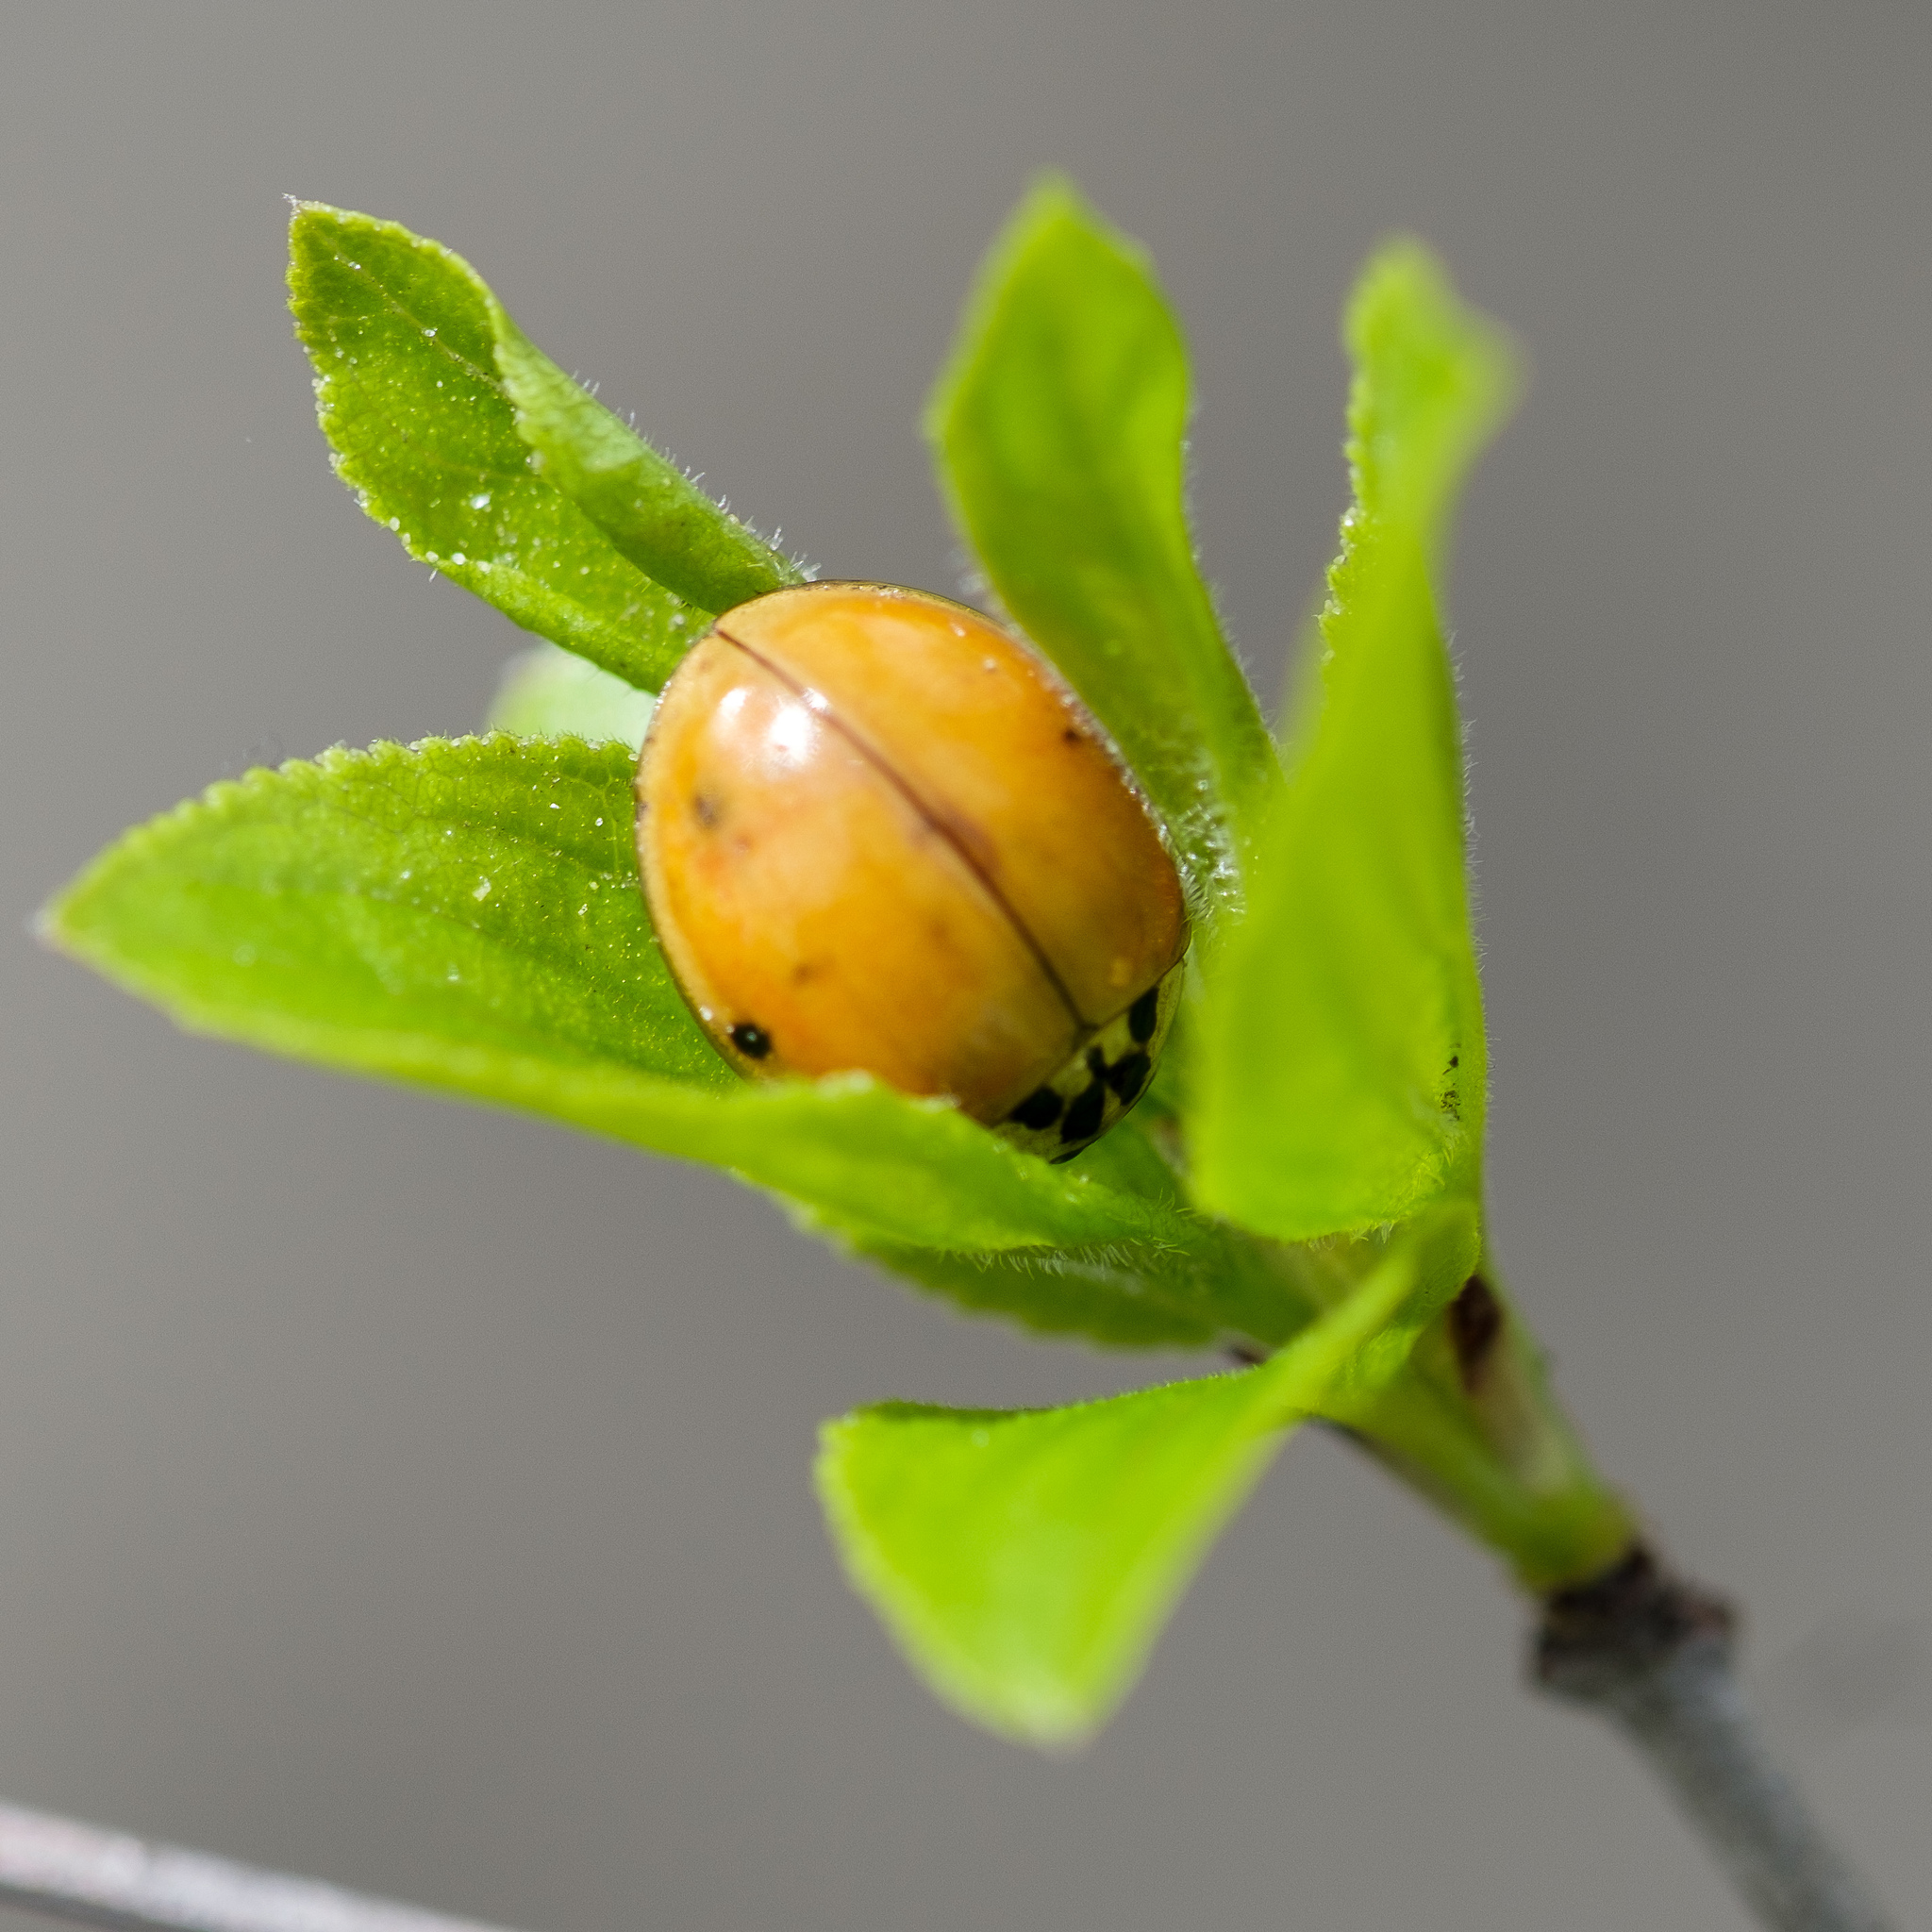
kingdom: Animalia
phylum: Arthropoda
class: Insecta
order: Coleoptera
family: Coccinellidae
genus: Harmonia
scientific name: Harmonia axyridis
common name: Harlequin ladybird
